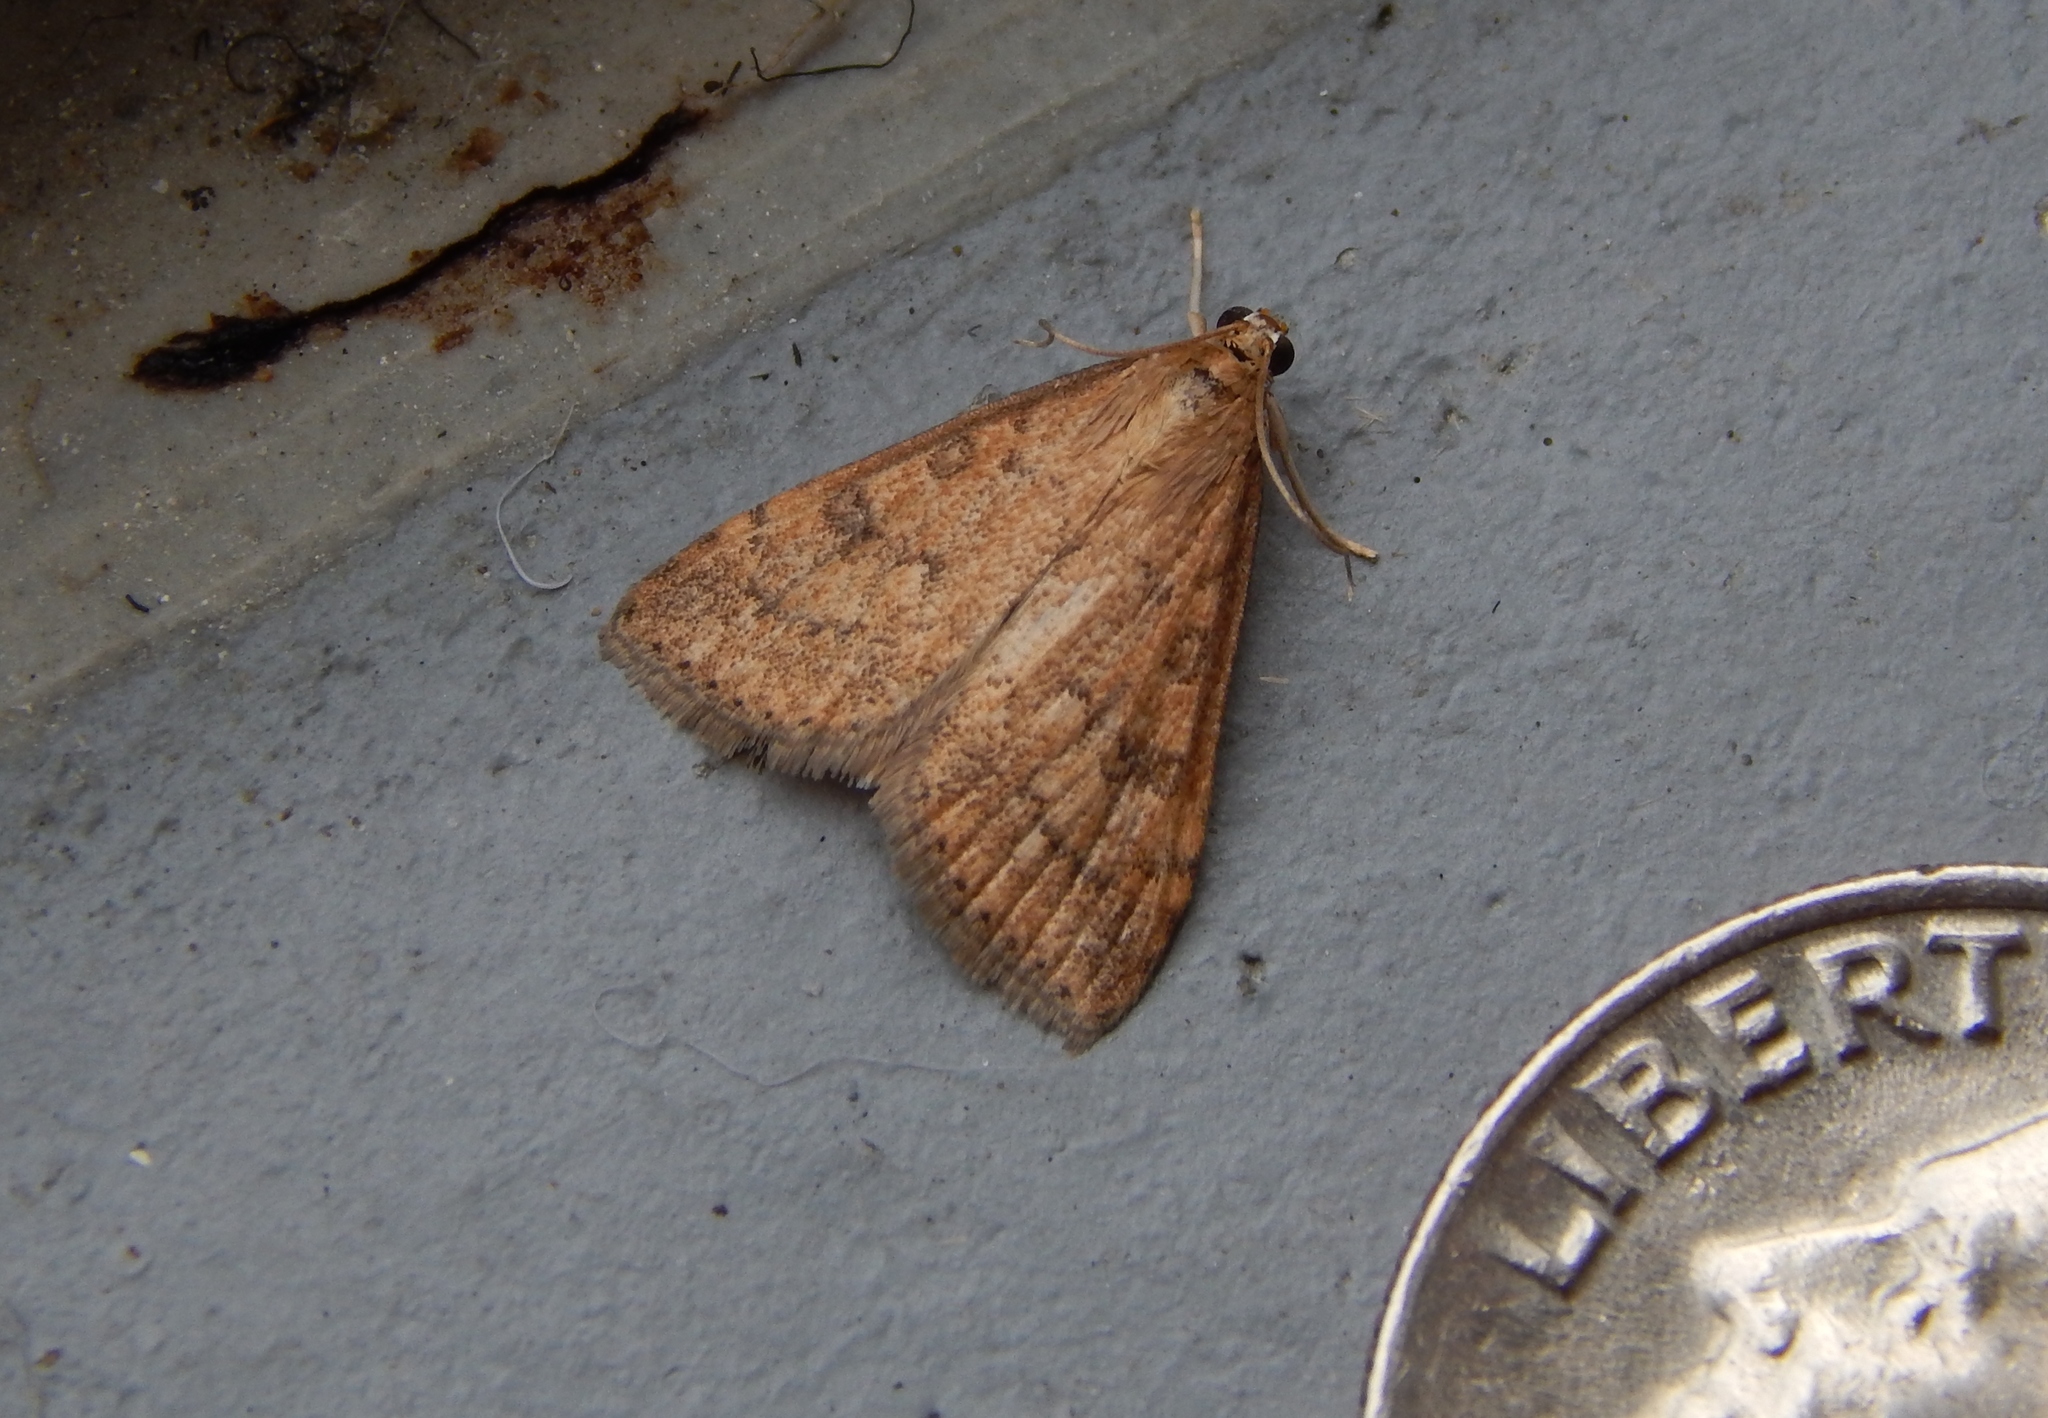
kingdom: Animalia
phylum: Arthropoda
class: Insecta
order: Lepidoptera
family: Crambidae
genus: Udea
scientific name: Udea rubigalis
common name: Celery leaftier moth
